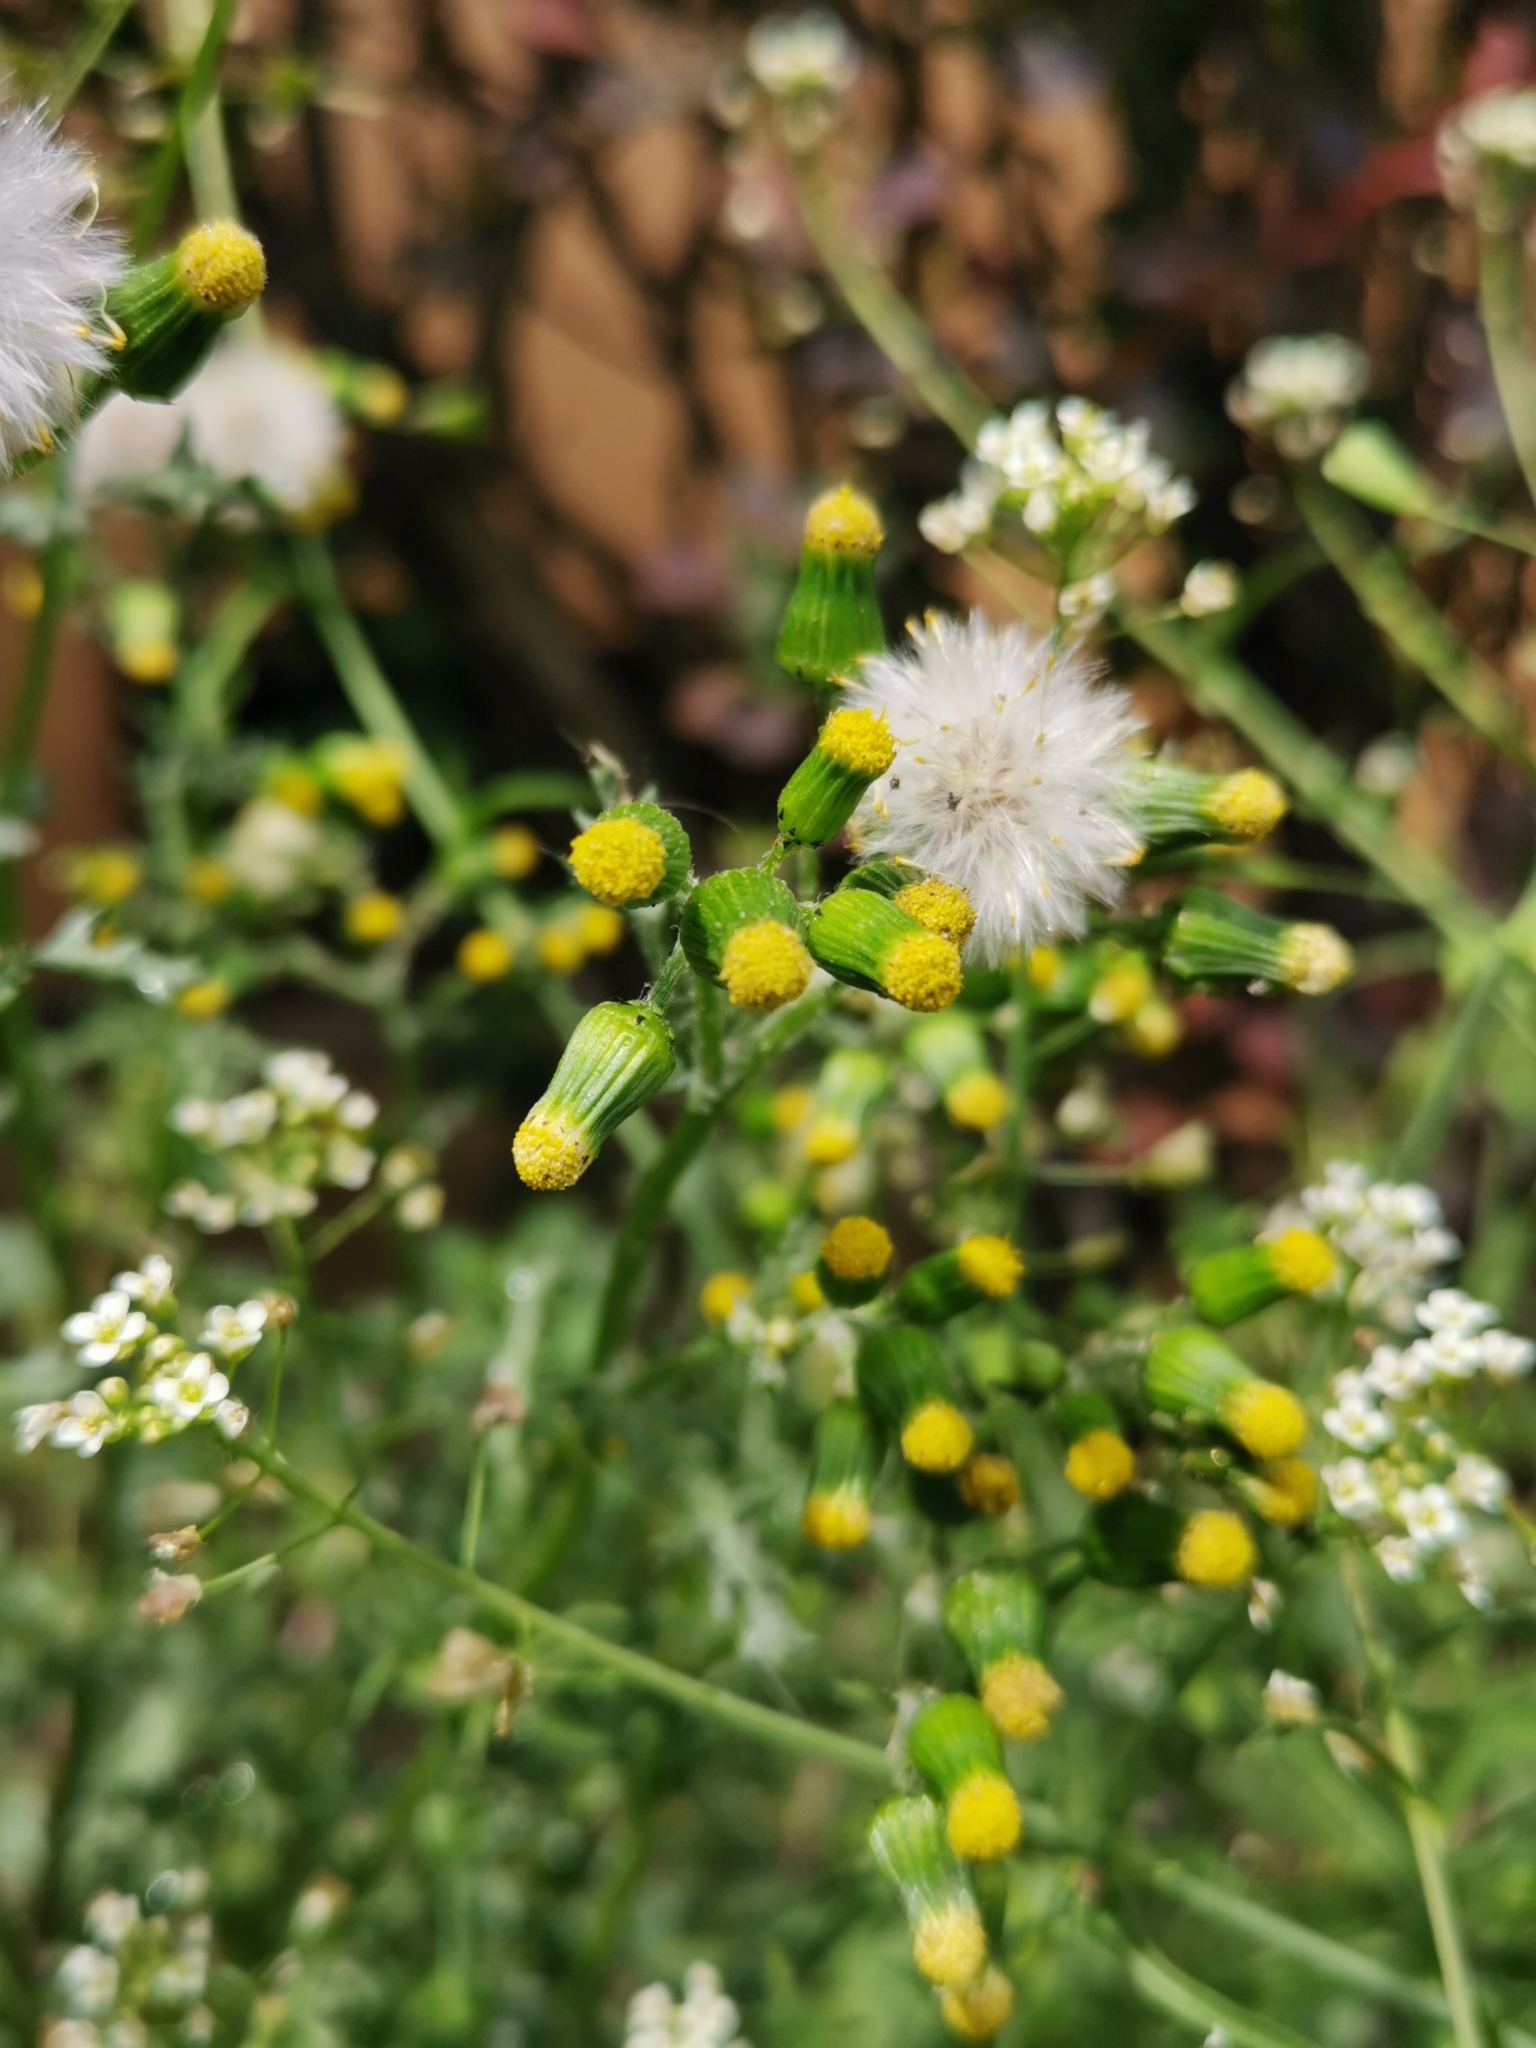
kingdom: Plantae
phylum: Tracheophyta
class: Magnoliopsida
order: Asterales
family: Asteraceae
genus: Senecio
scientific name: Senecio vulgaris
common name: Old-man-in-the-spring
